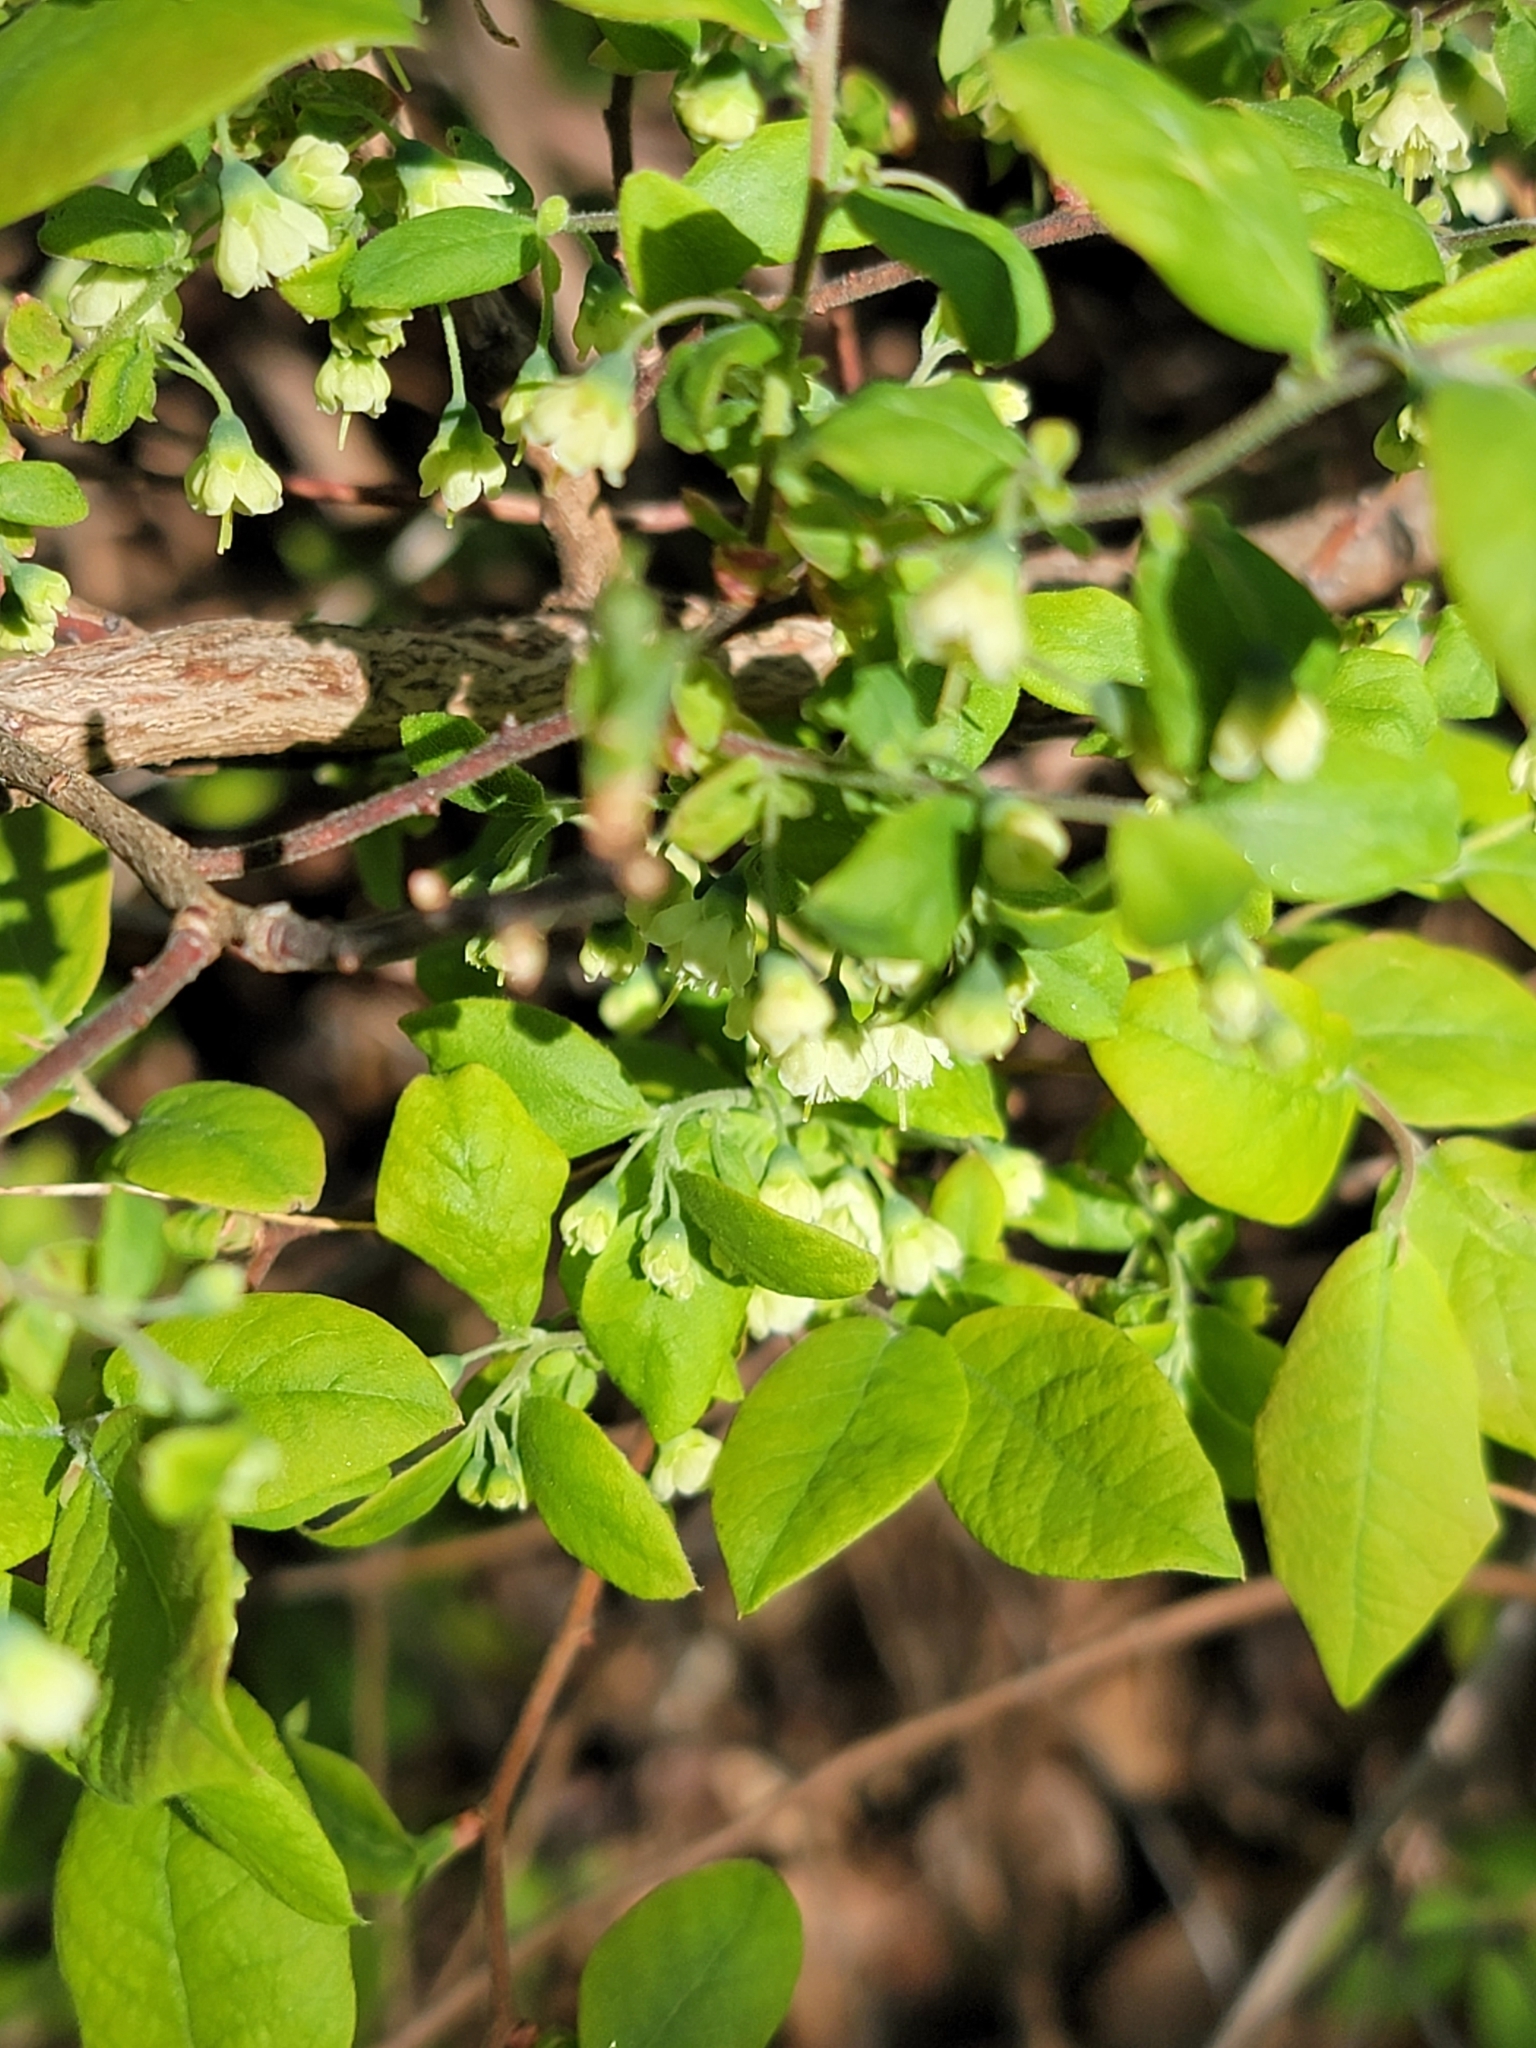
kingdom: Plantae
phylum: Tracheophyta
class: Magnoliopsida
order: Ericales
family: Ericaceae
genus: Vaccinium
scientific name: Vaccinium stamineum
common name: Deerberry
